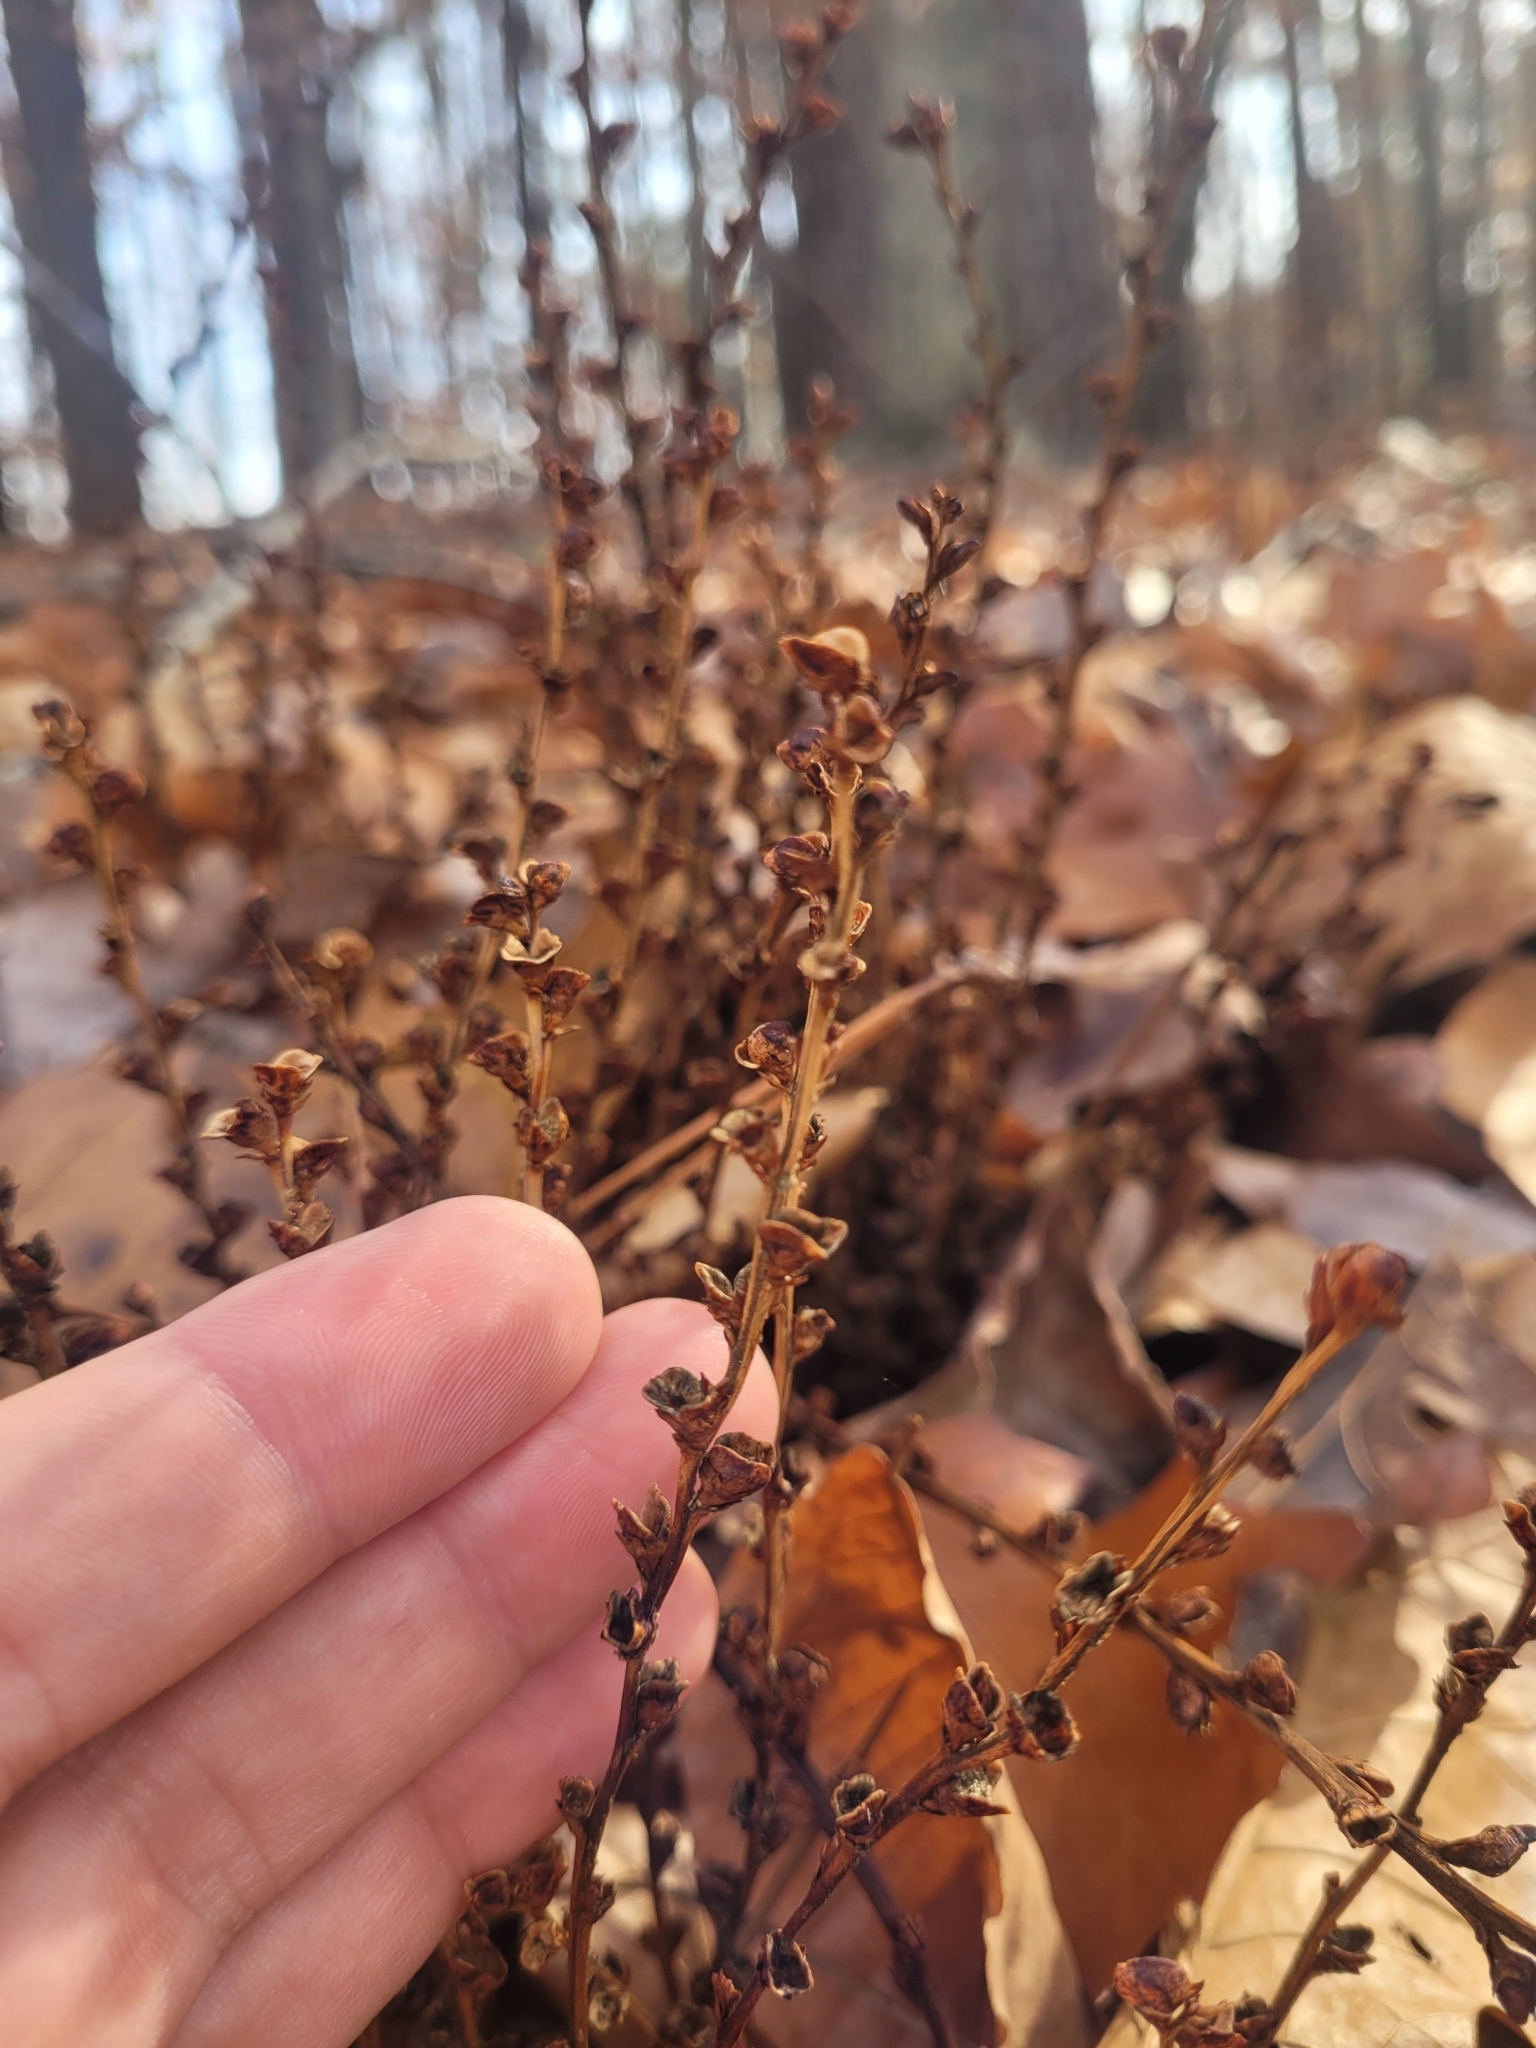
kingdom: Plantae
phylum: Tracheophyta
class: Magnoliopsida
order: Lamiales
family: Orobanchaceae
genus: Epifagus
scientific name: Epifagus virginiana
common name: Beechdrops
